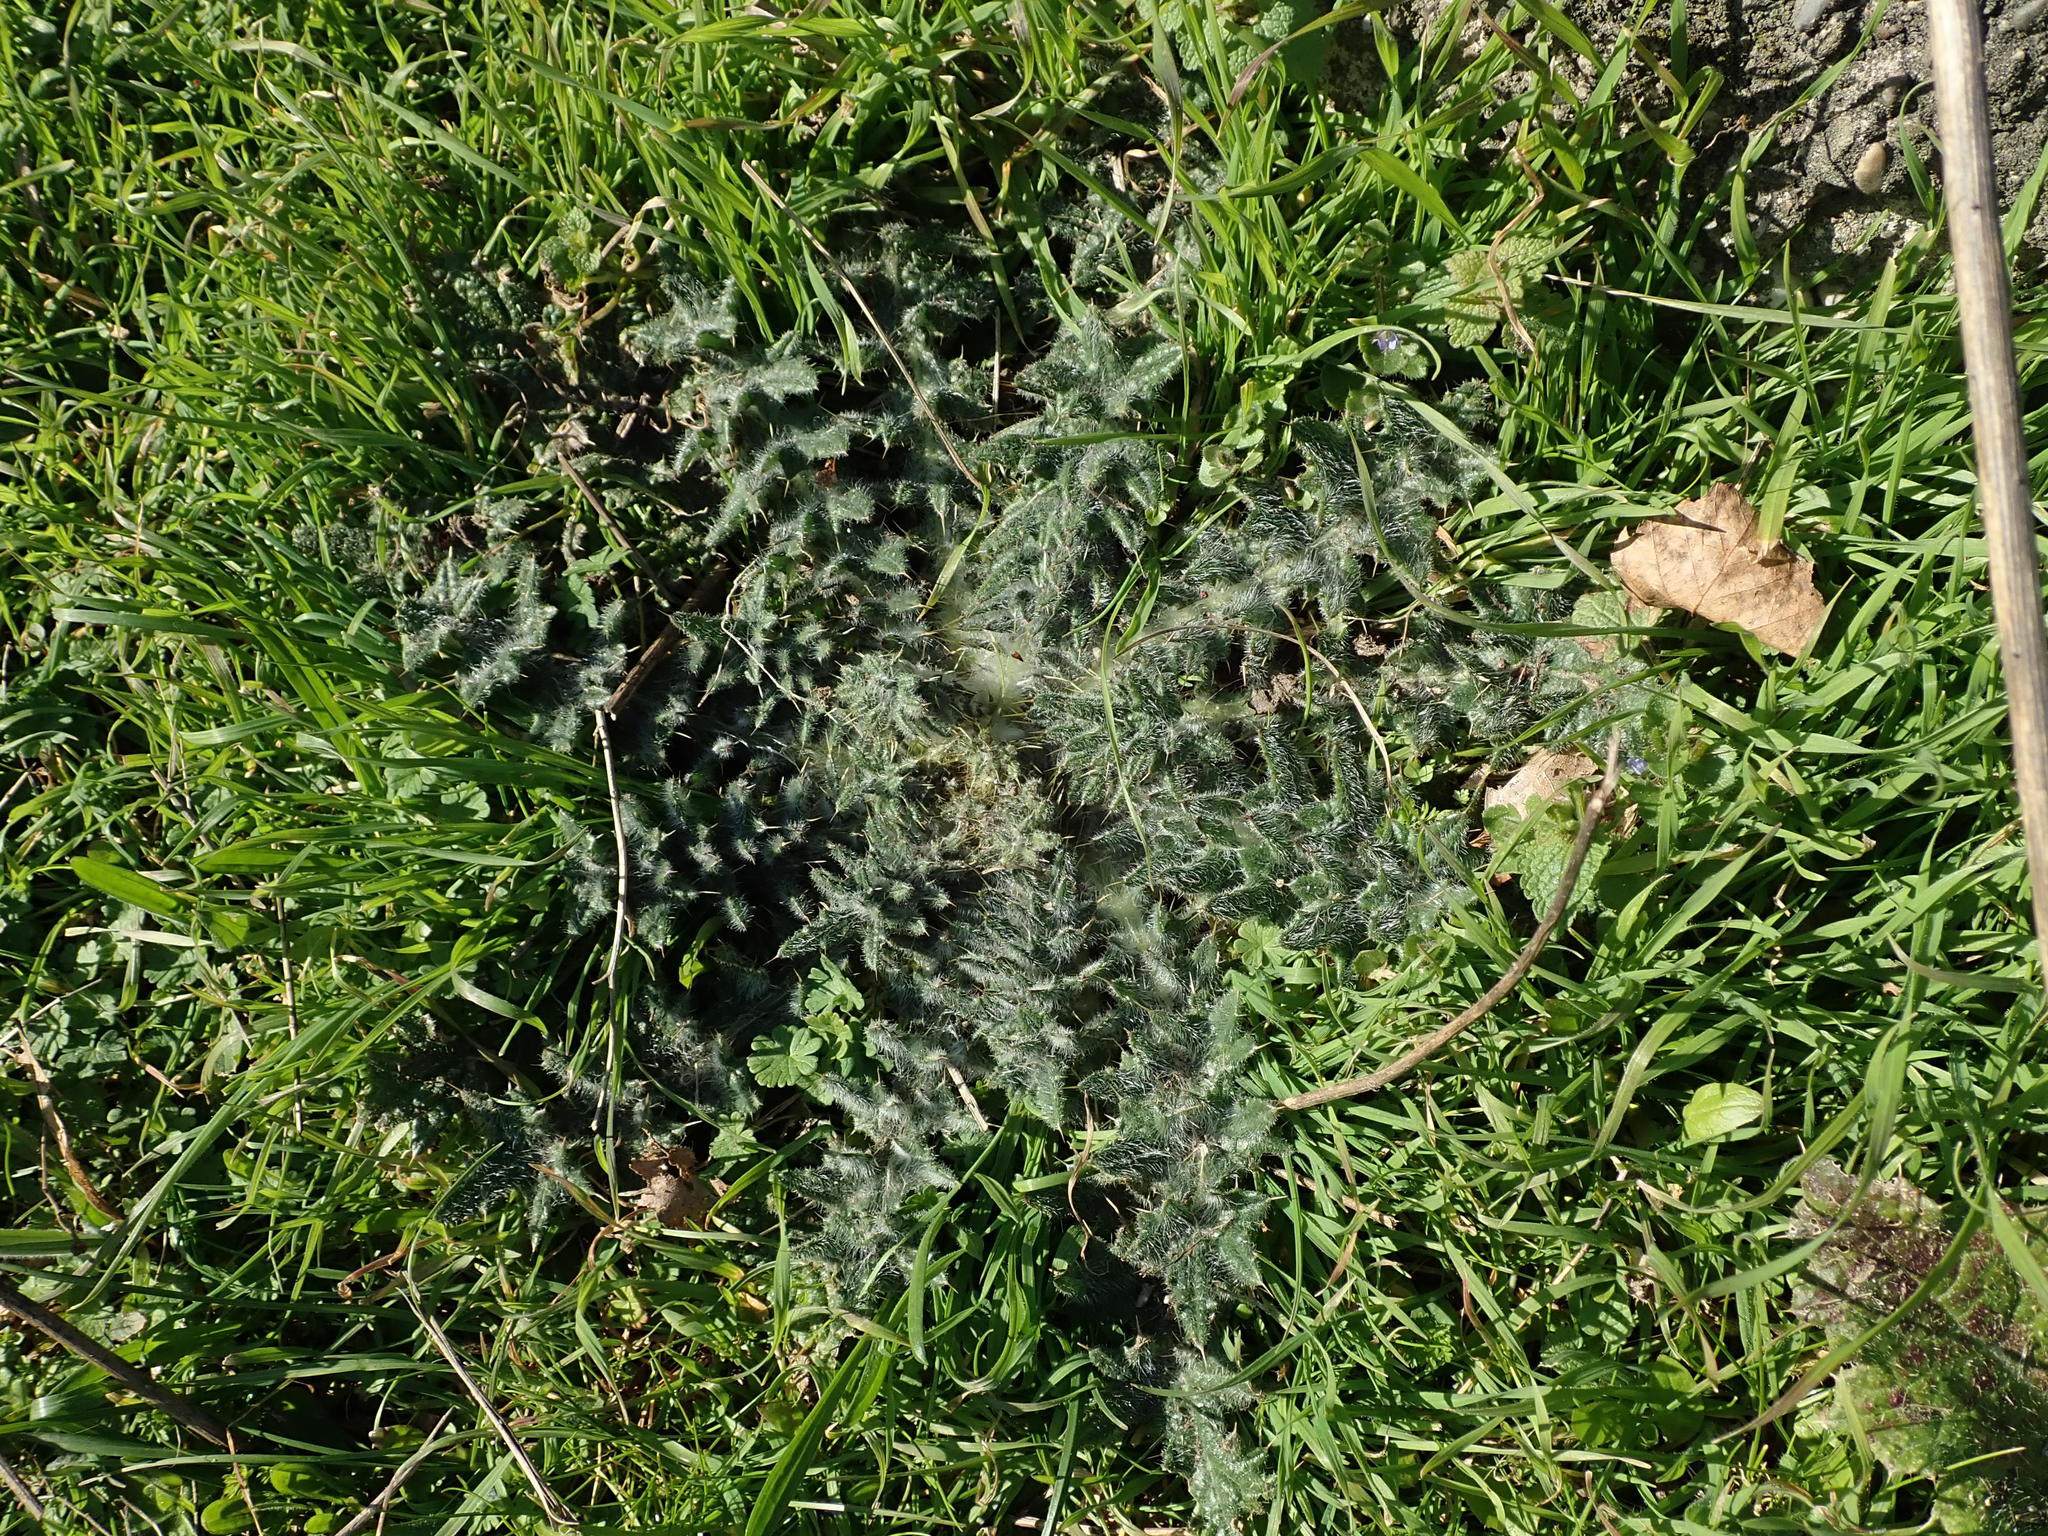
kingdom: Plantae
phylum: Tracheophyta
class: Magnoliopsida
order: Asterales
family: Asteraceae
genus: Cirsium
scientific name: Cirsium vulgare
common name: Bull thistle
